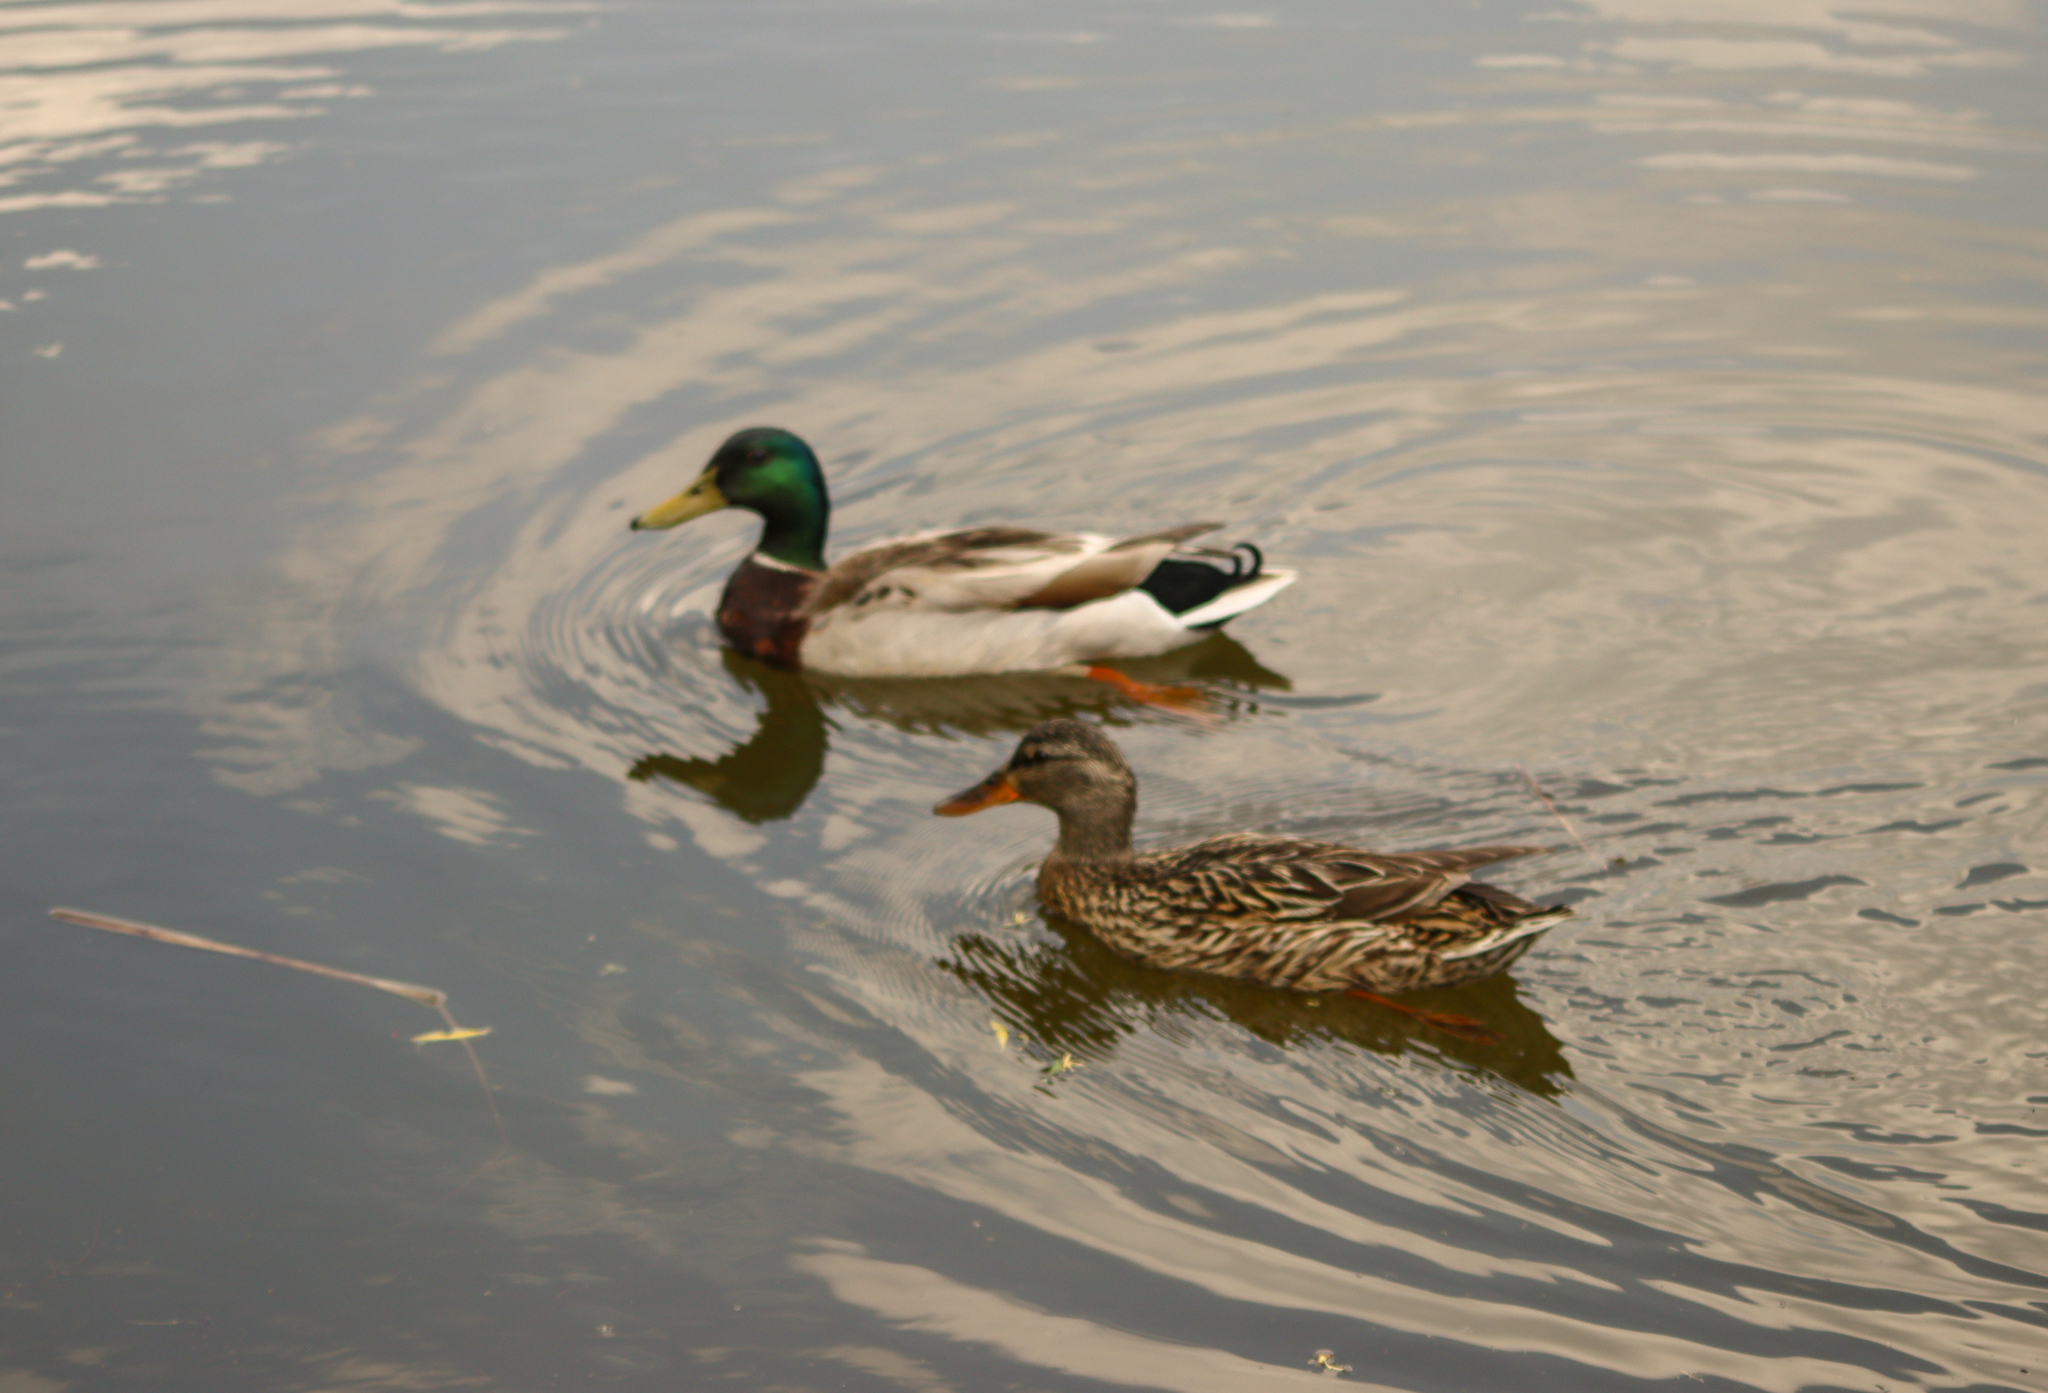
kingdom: Animalia
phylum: Chordata
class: Aves
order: Anseriformes
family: Anatidae
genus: Anas
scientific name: Anas platyrhynchos
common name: Mallard
